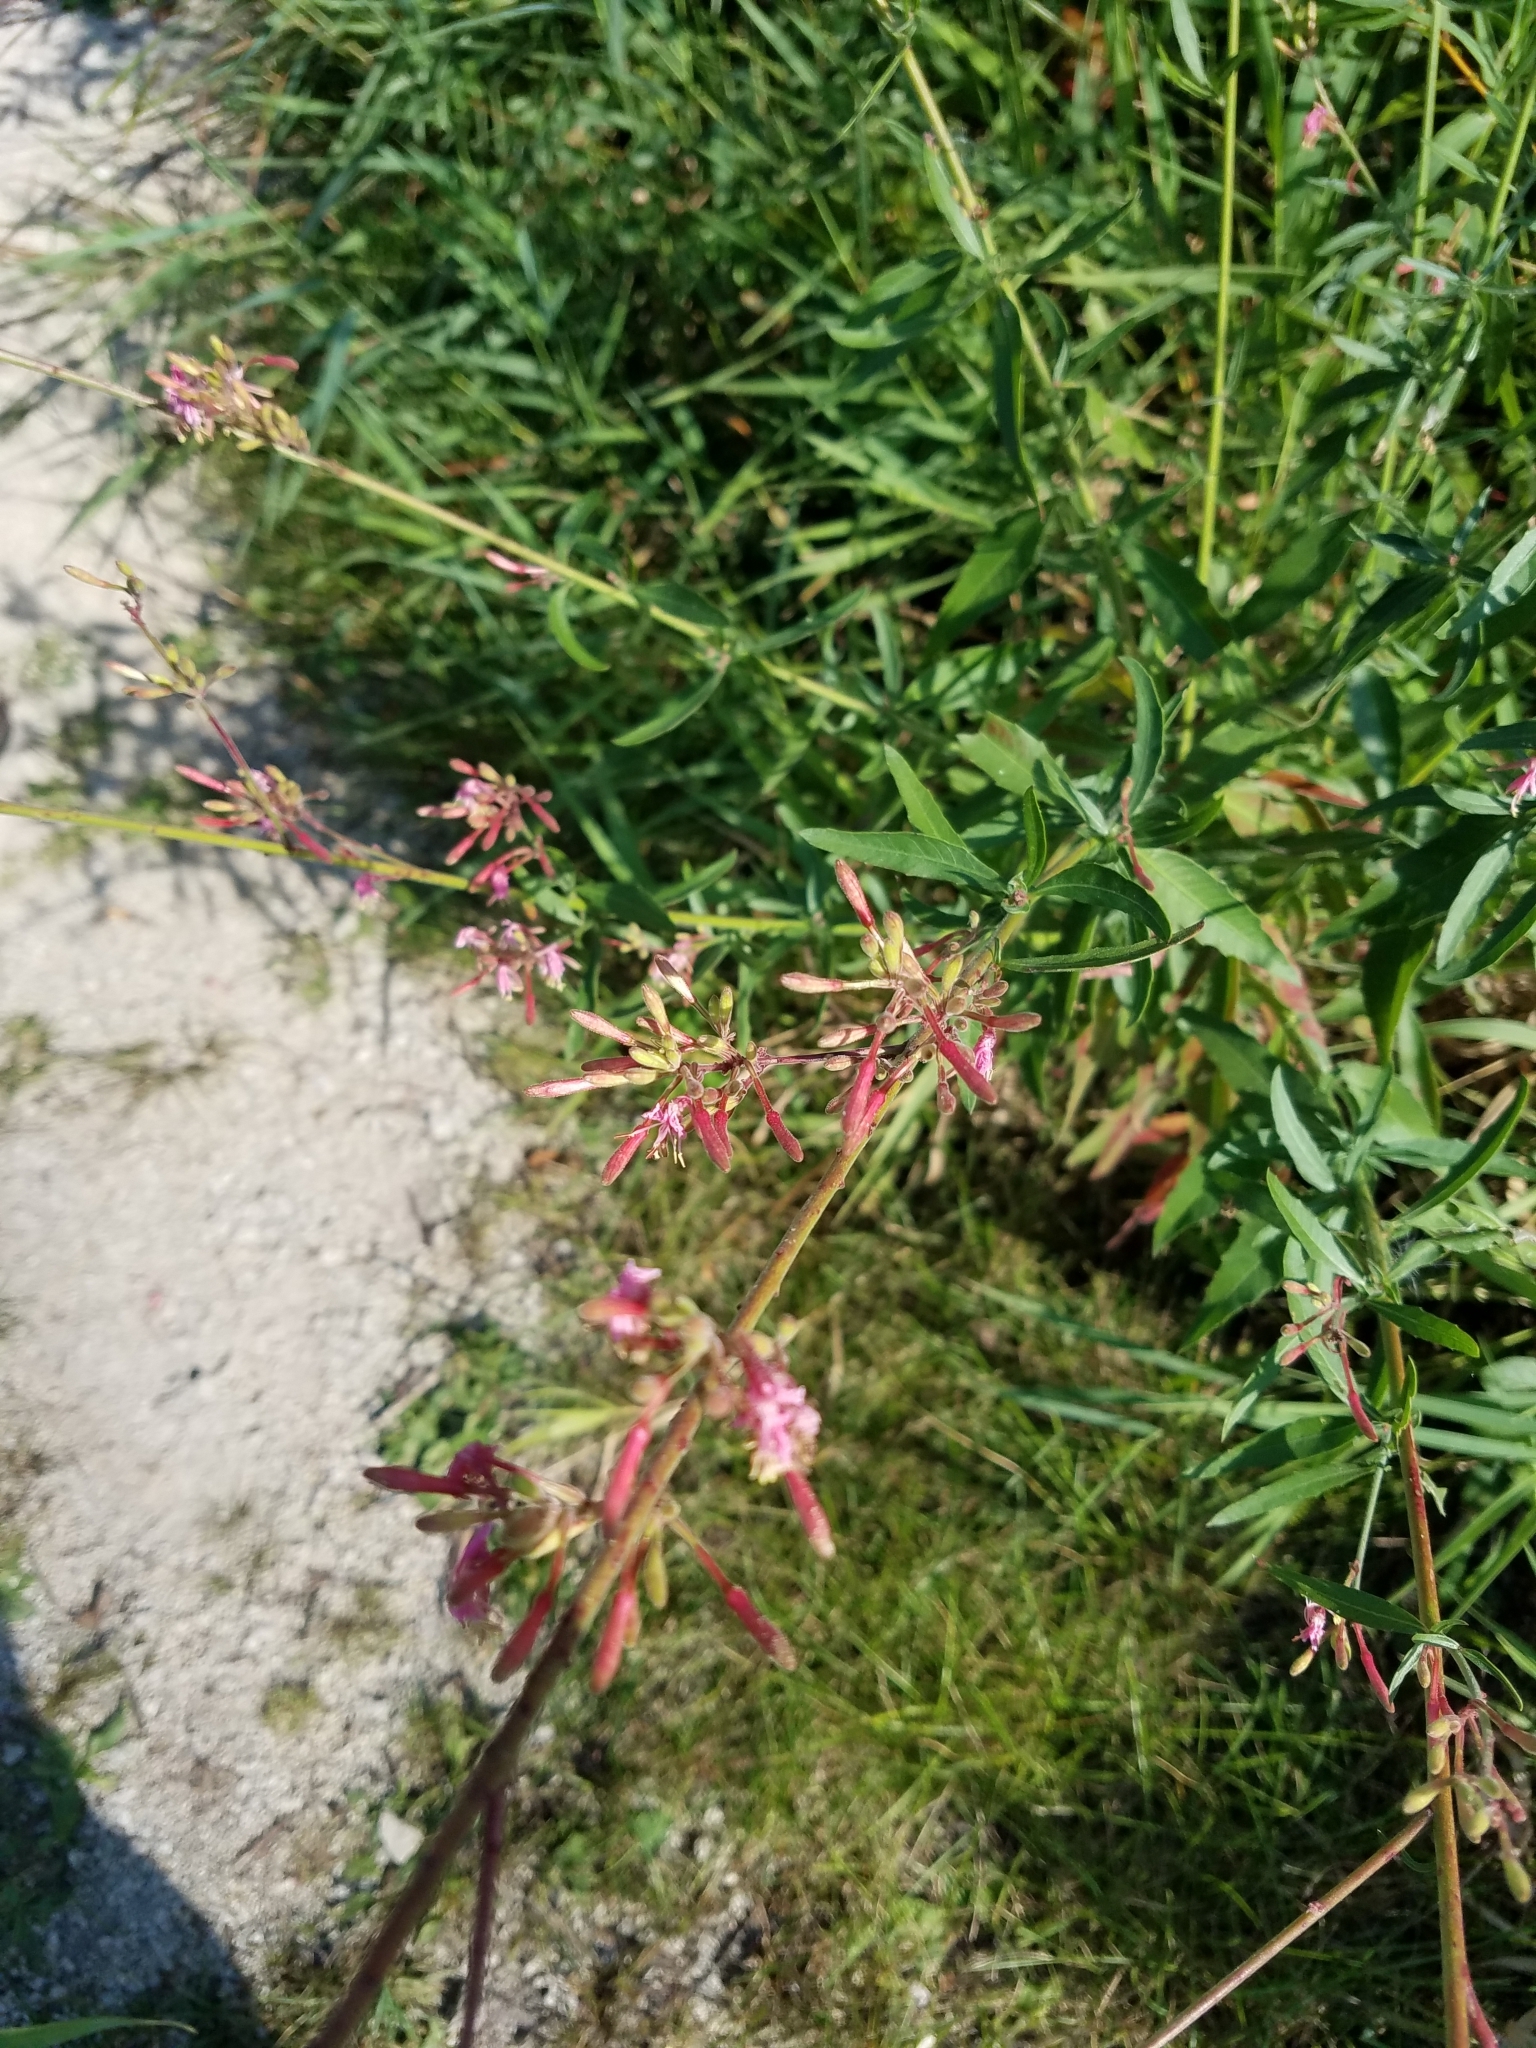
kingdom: Plantae
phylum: Tracheophyta
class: Magnoliopsida
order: Myrtales
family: Onagraceae
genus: Oenothera
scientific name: Oenothera gaura
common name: Biennial beeblossom
